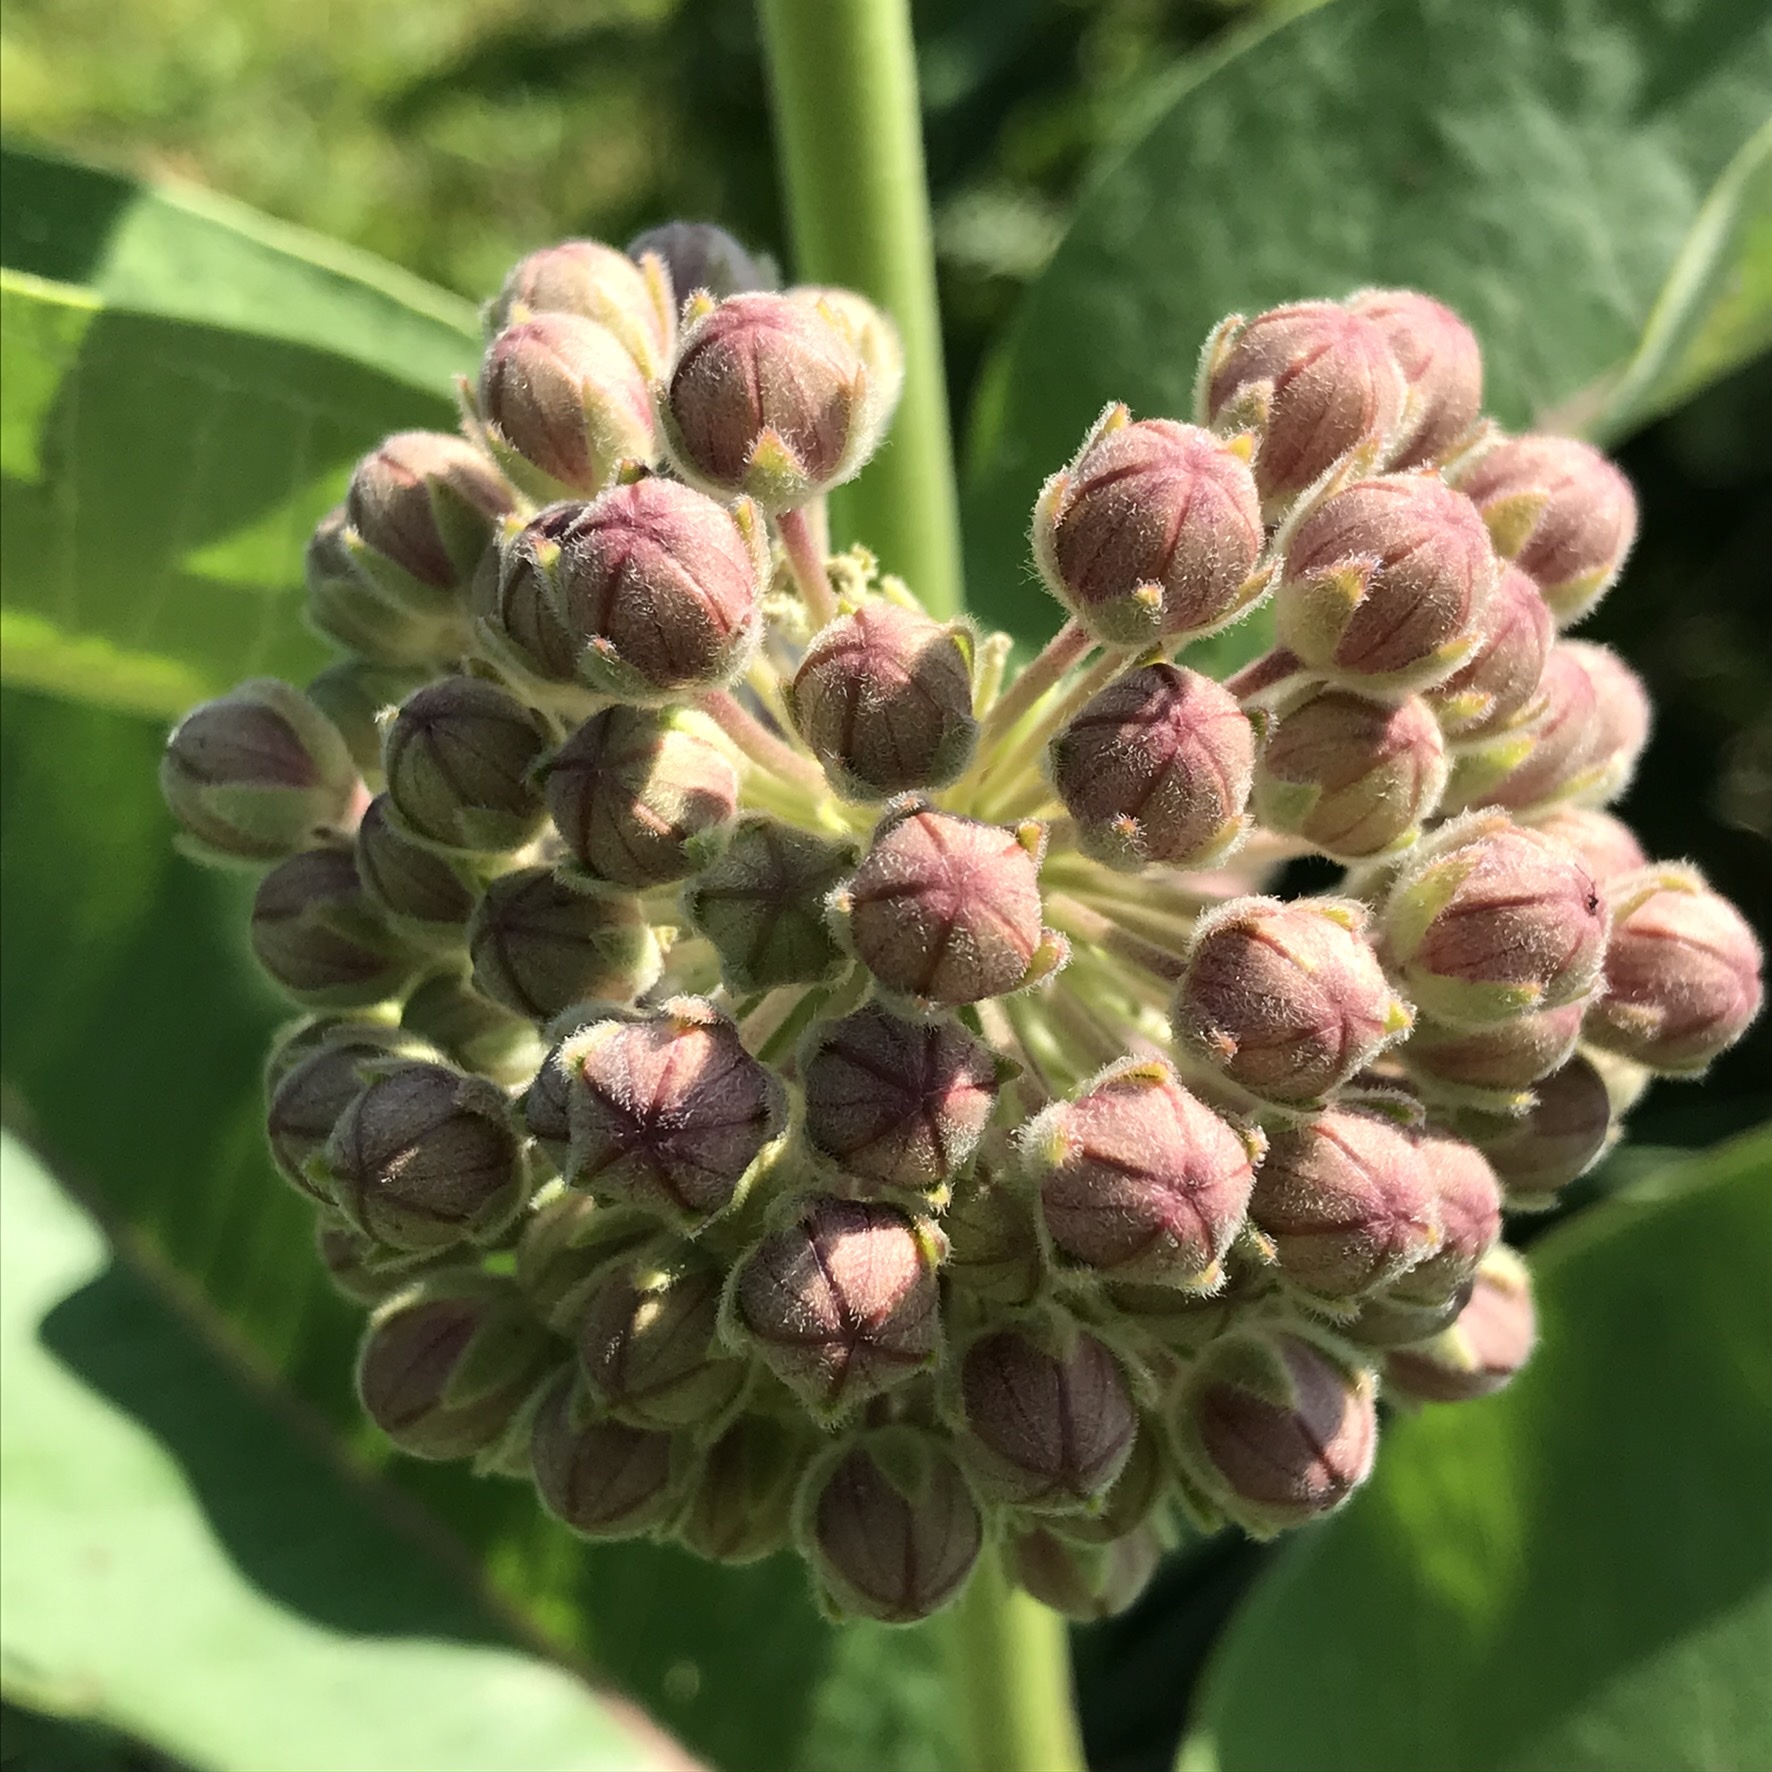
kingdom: Plantae
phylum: Tracheophyta
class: Magnoliopsida
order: Gentianales
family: Apocynaceae
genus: Asclepias
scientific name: Asclepias syriaca
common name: Common milkweed
